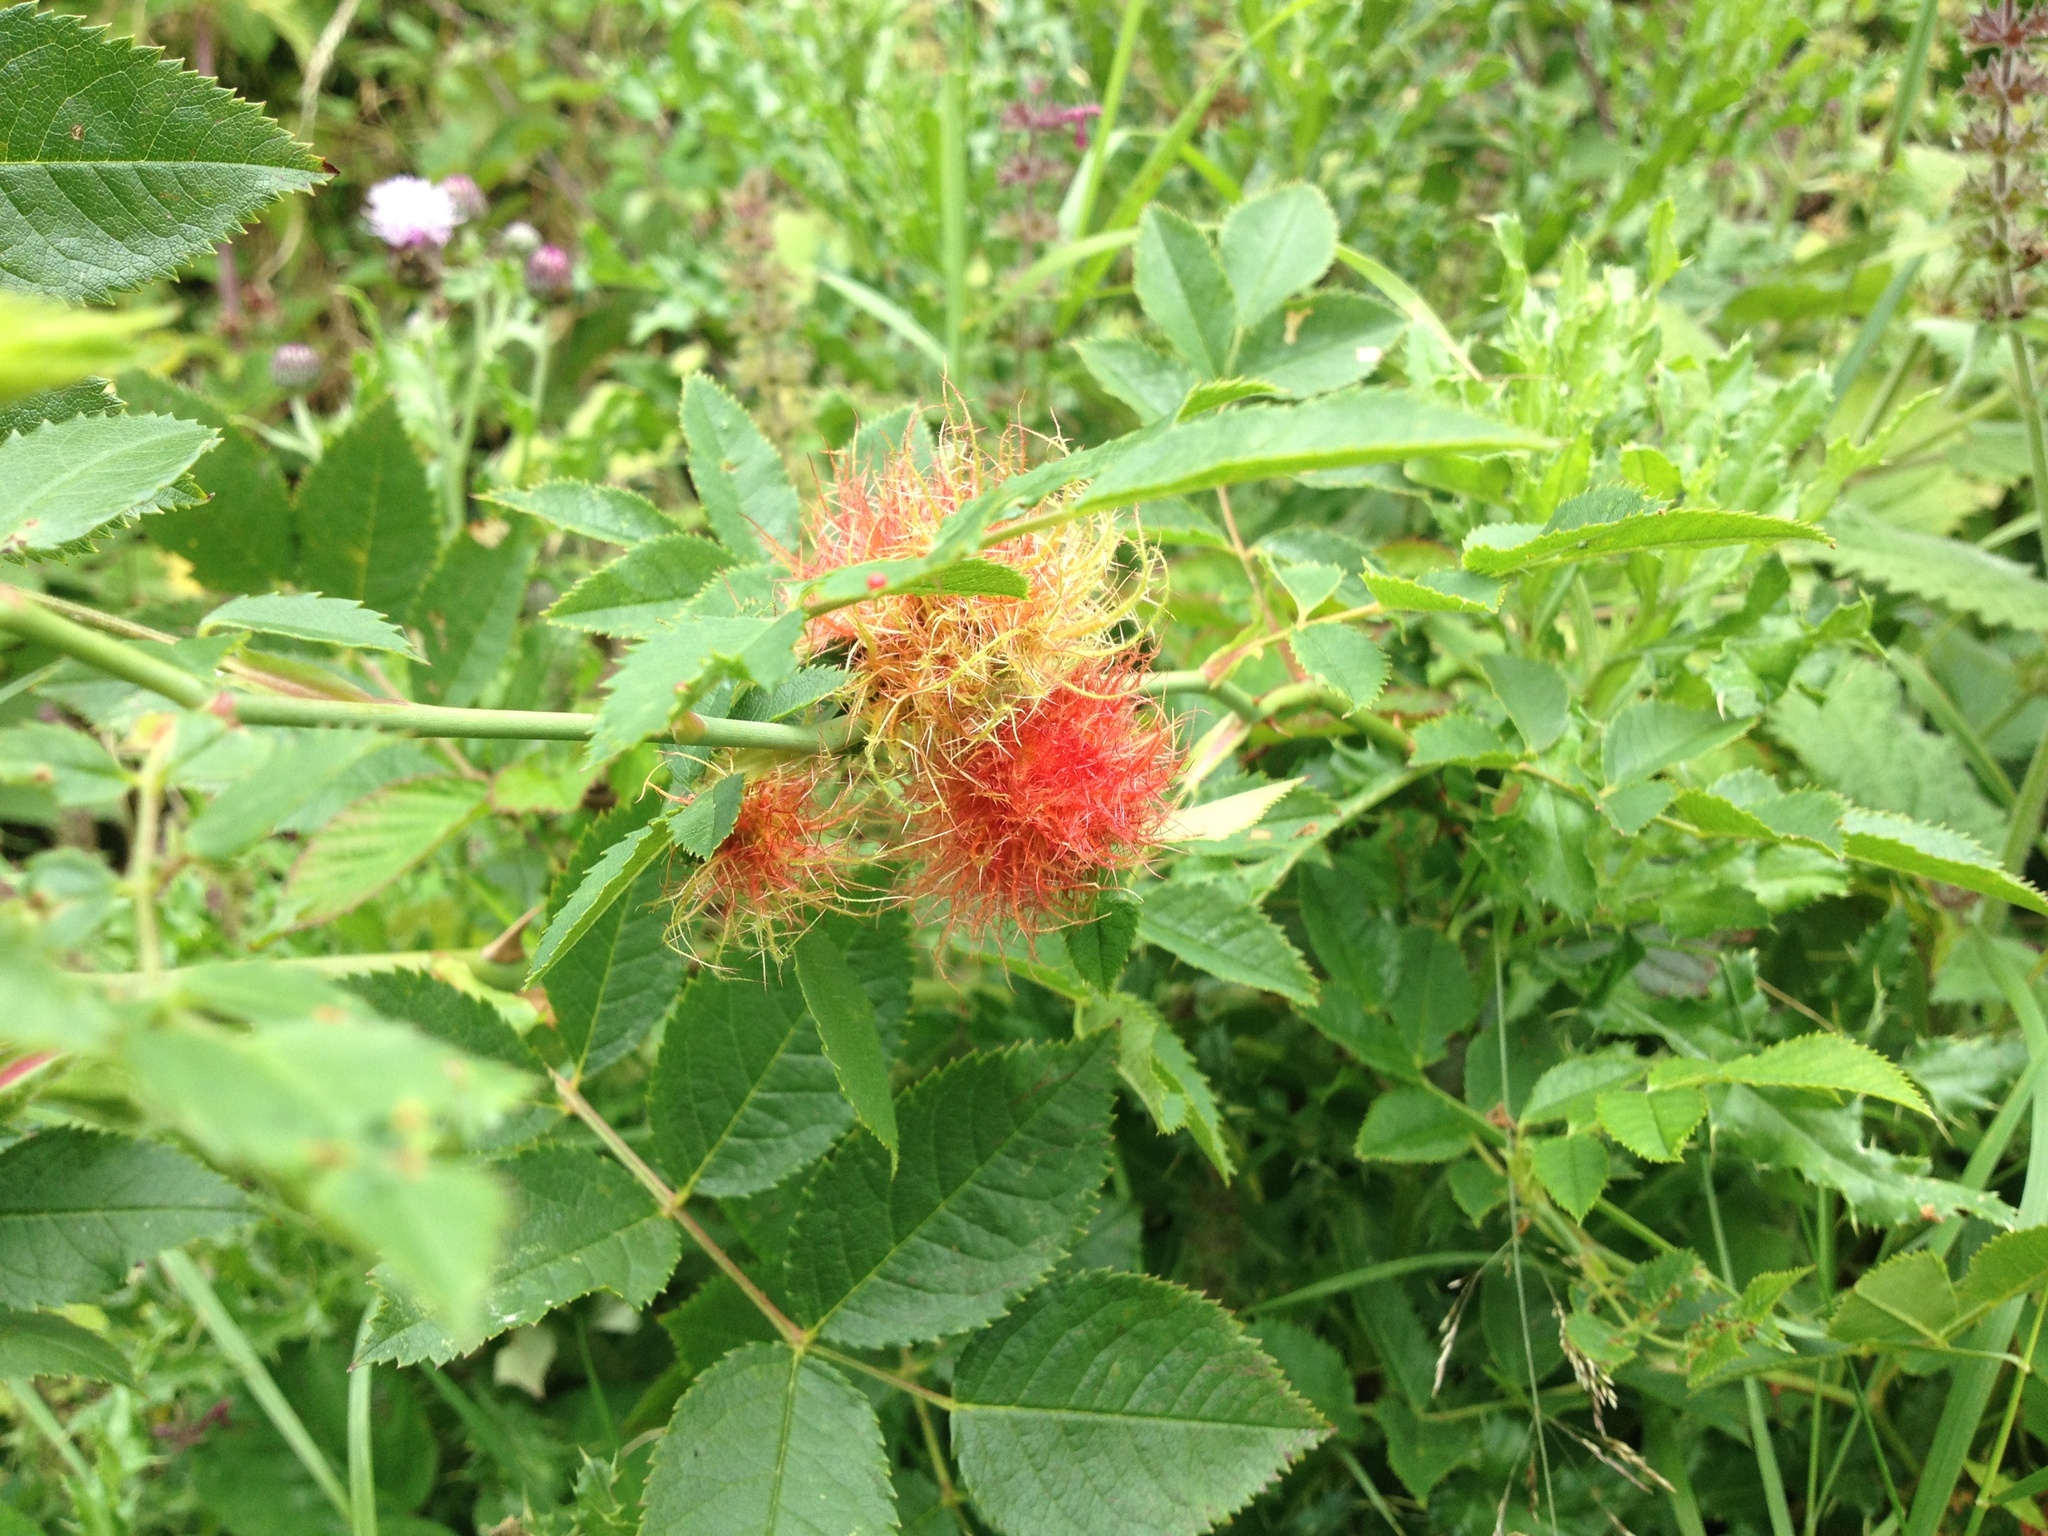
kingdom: Animalia
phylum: Arthropoda
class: Insecta
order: Hymenoptera
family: Cynipidae
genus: Diplolepis
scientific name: Diplolepis rosae
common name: Bedeguar gall
